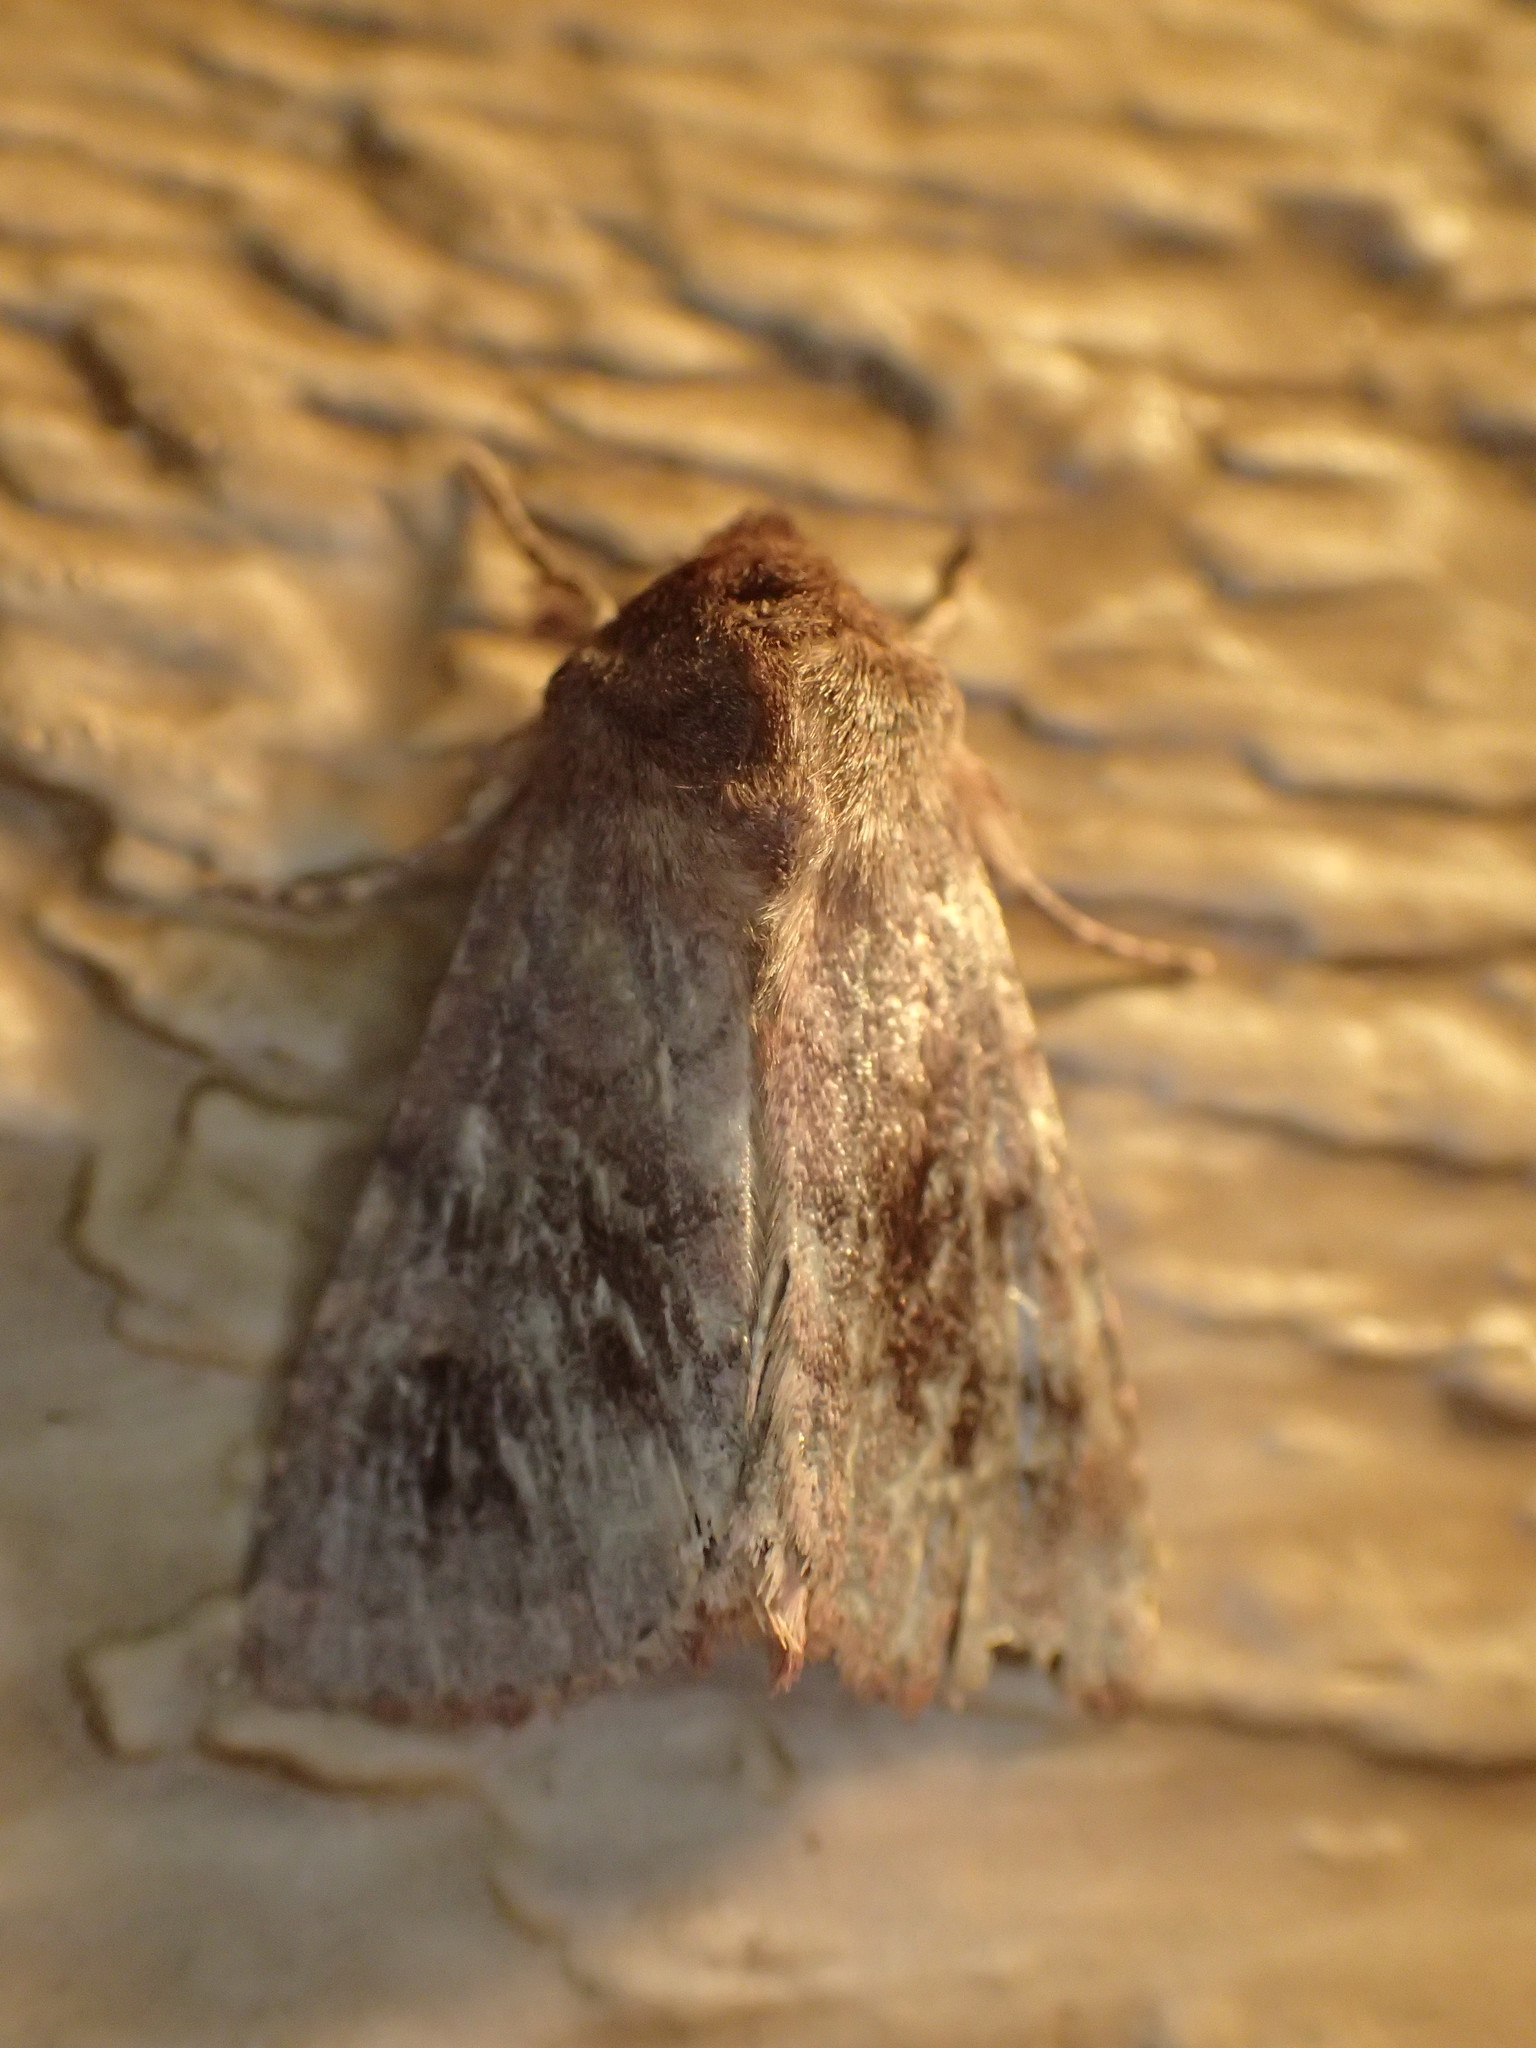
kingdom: Animalia
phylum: Arthropoda
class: Insecta
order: Lepidoptera
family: Noctuidae
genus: Nephelodes
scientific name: Nephelodes minians
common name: Bronzed cutworm
